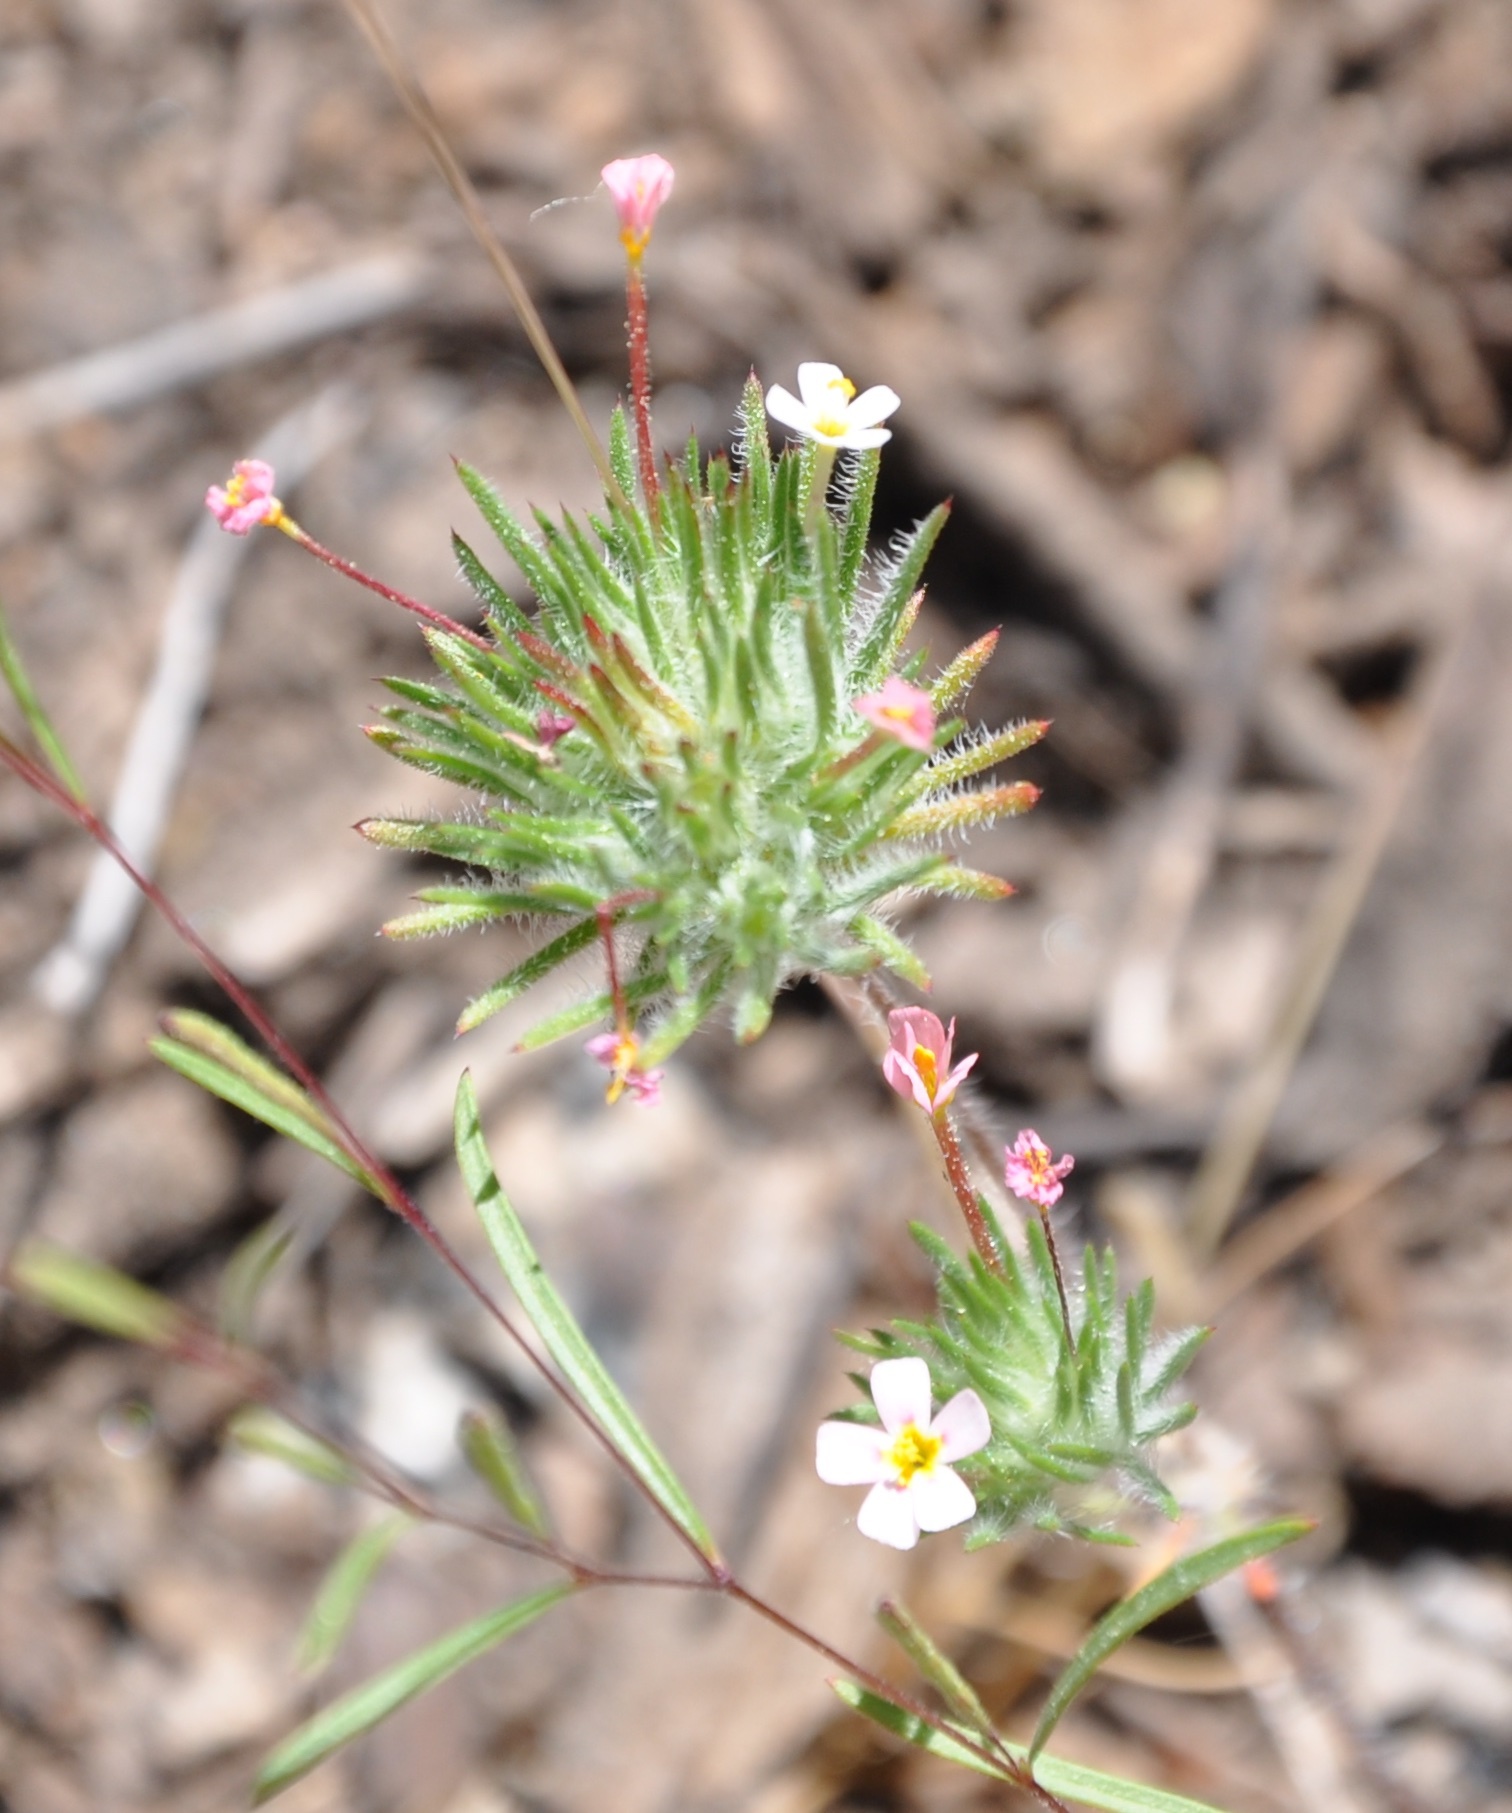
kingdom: Plantae
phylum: Tracheophyta
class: Magnoliopsida
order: Ericales
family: Polemoniaceae
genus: Leptosiphon
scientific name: Leptosiphon ciliatus
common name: Whiskerbrush
